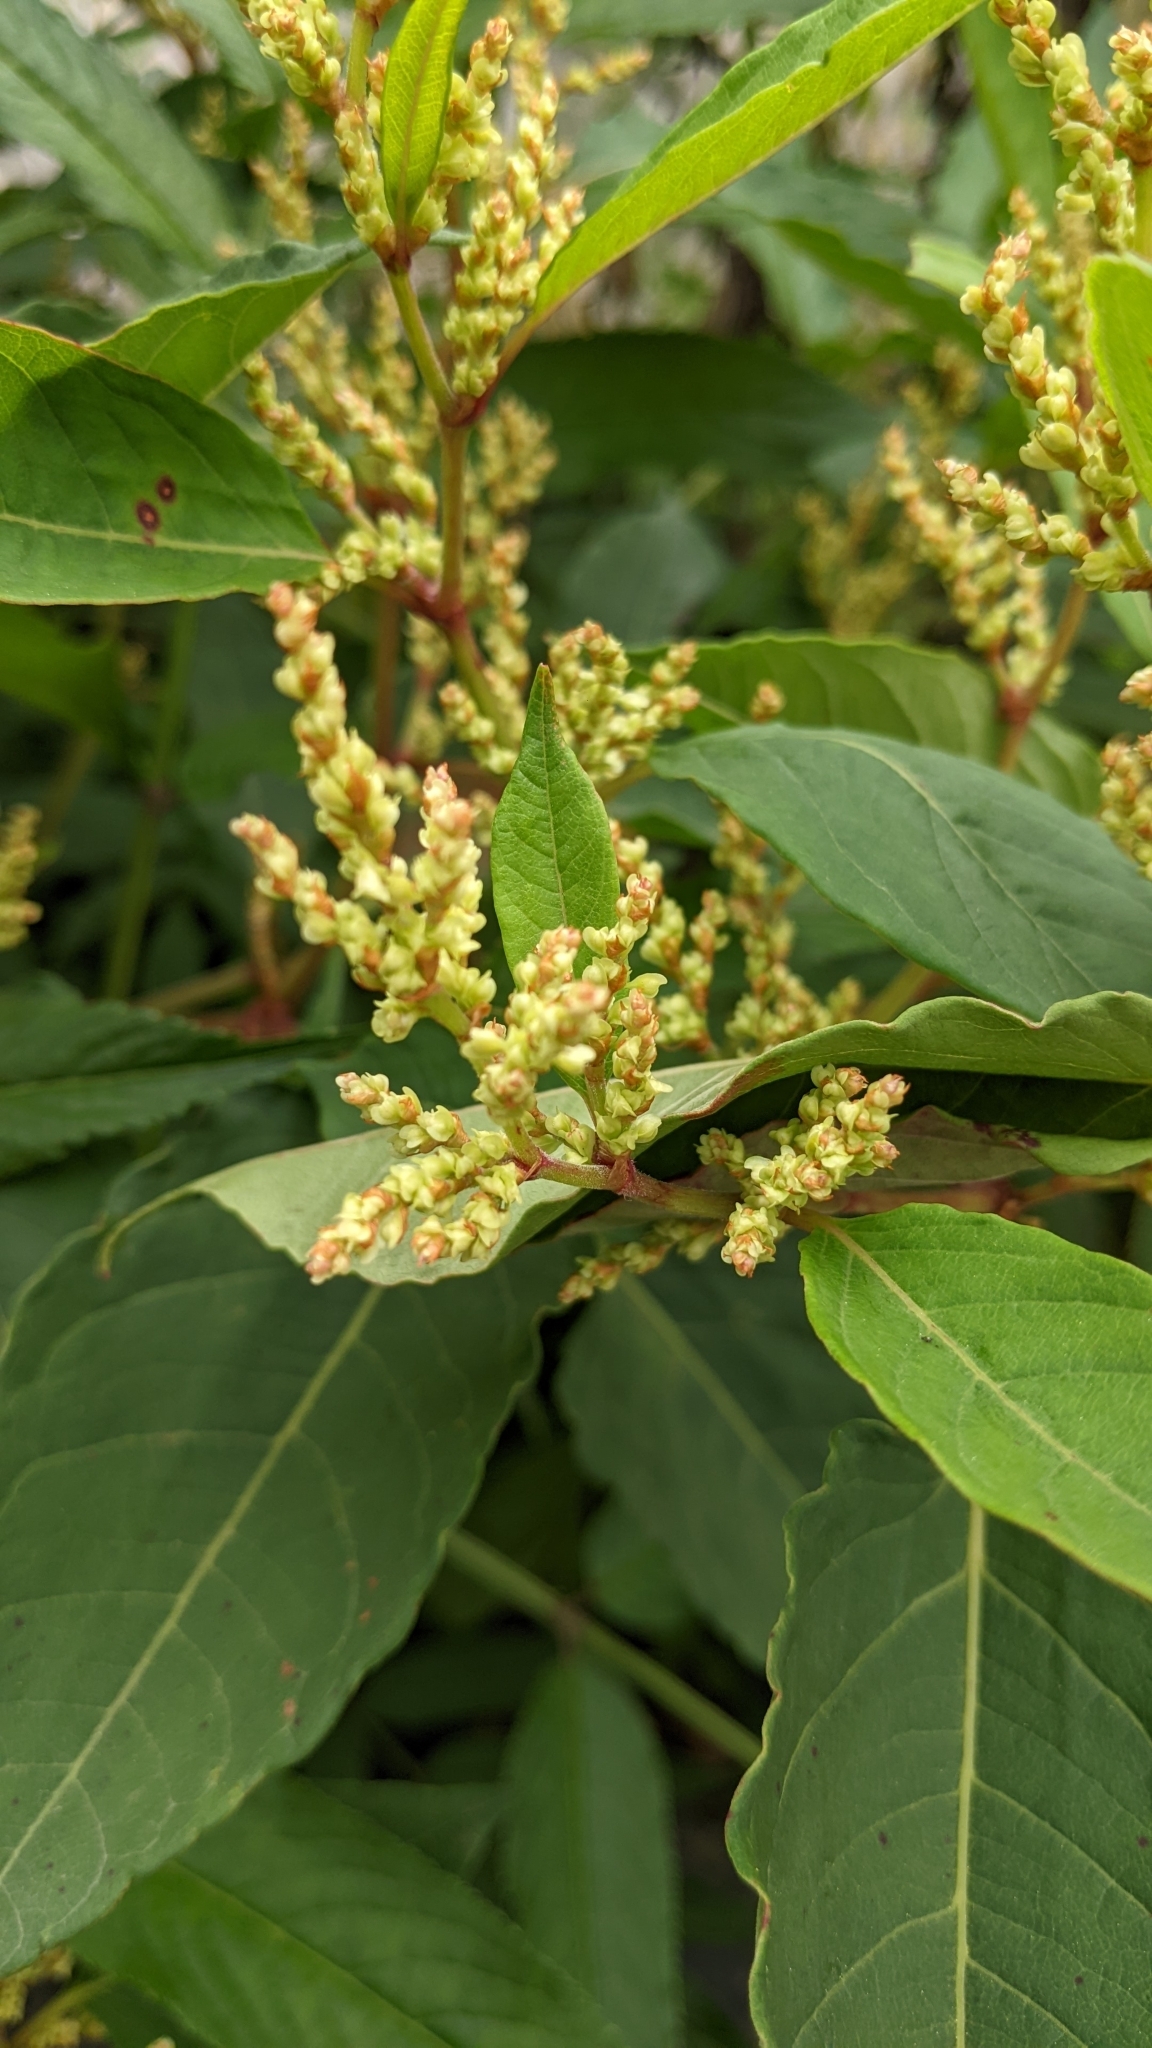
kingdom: Plantae
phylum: Tracheophyta
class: Magnoliopsida
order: Caryophyllales
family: Polygonaceae
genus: Reynoutria
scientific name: Reynoutria japonica
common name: Japanese knotweed
